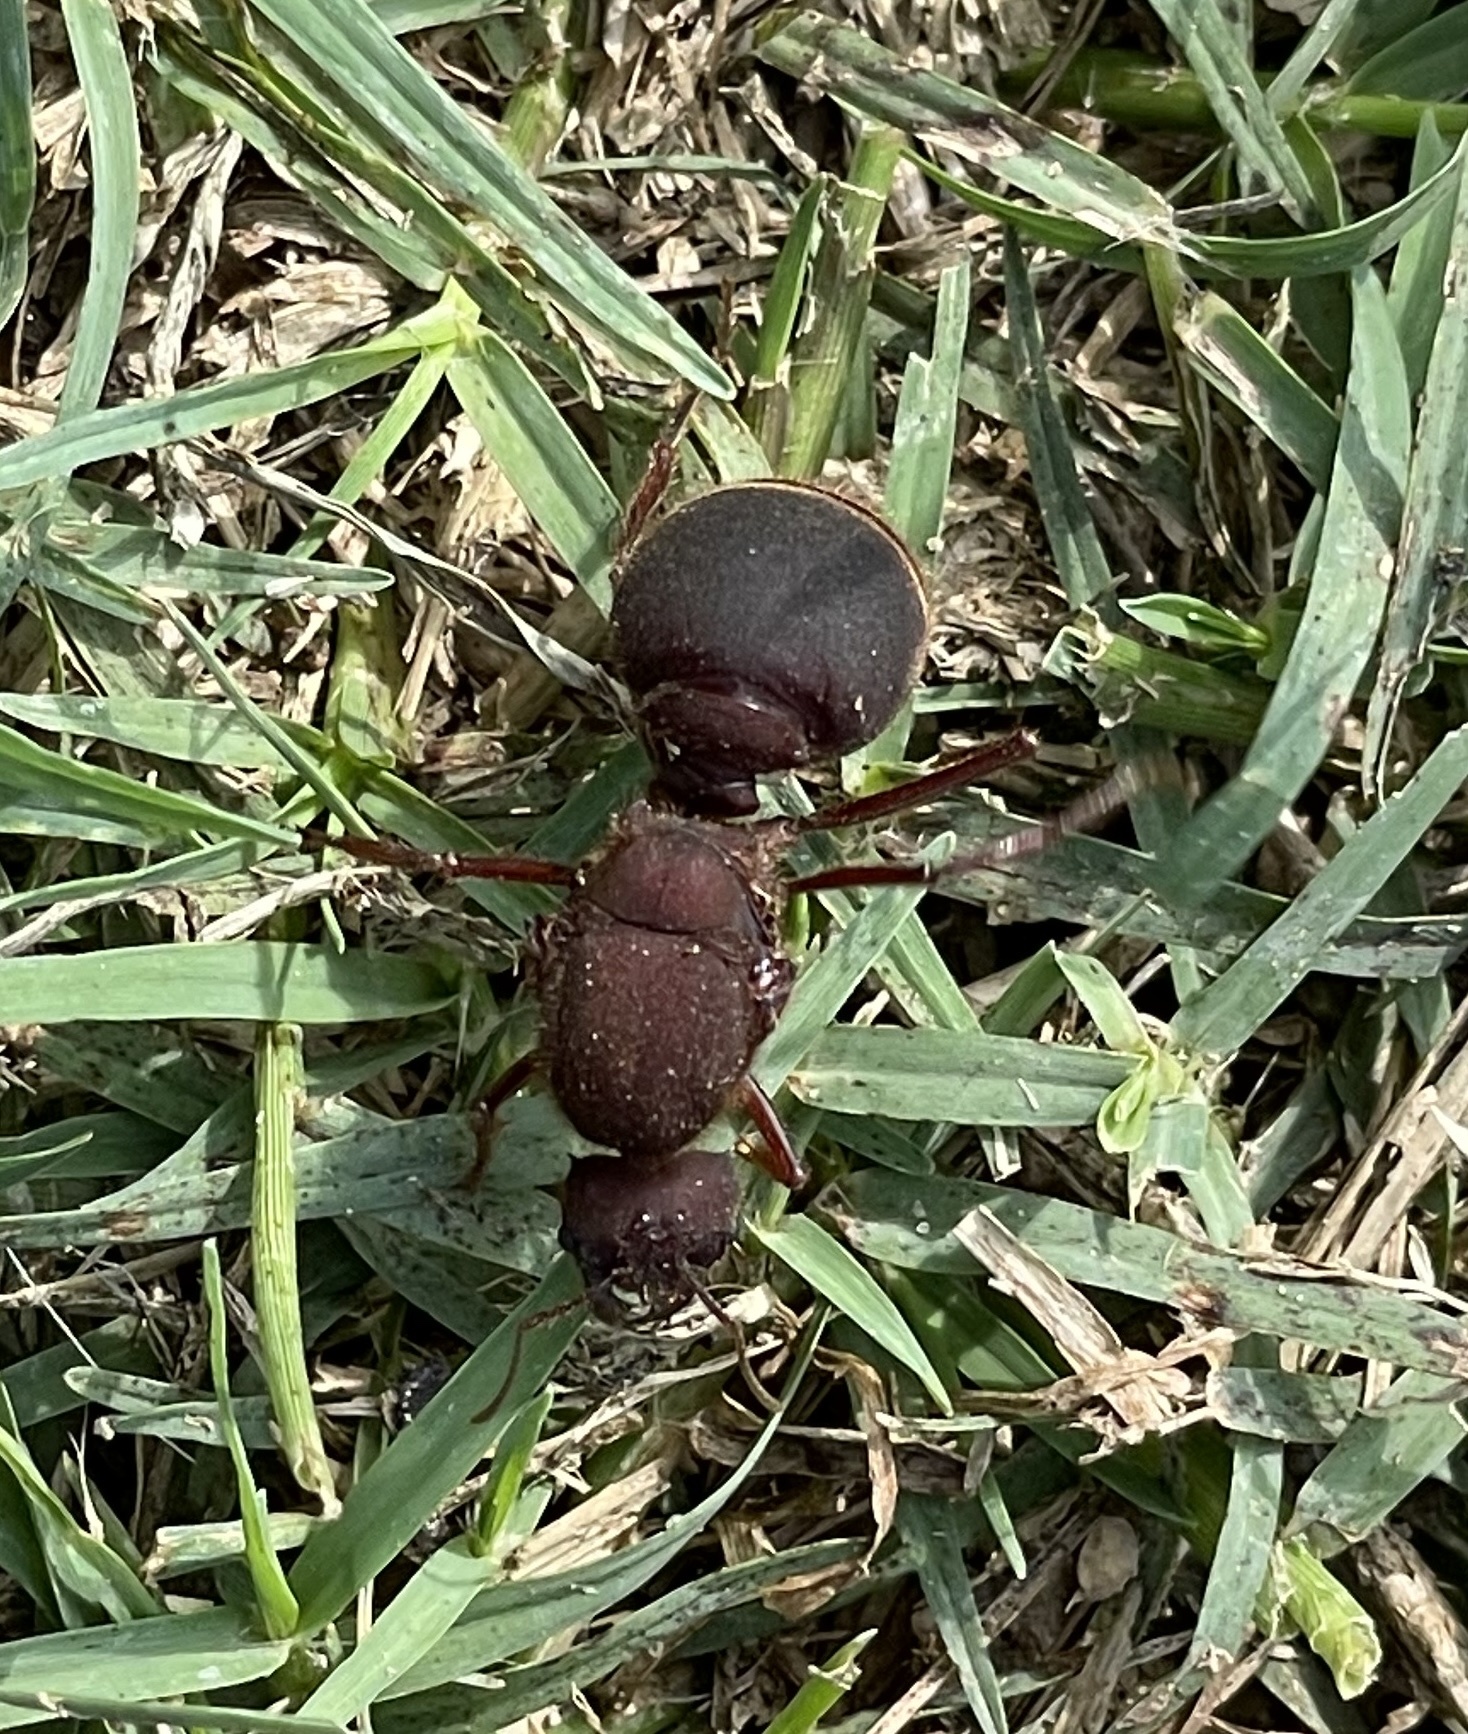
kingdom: Animalia
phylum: Arthropoda
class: Insecta
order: Hymenoptera
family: Formicidae
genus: Atta
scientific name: Atta texana
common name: Texas leafcutting ant
